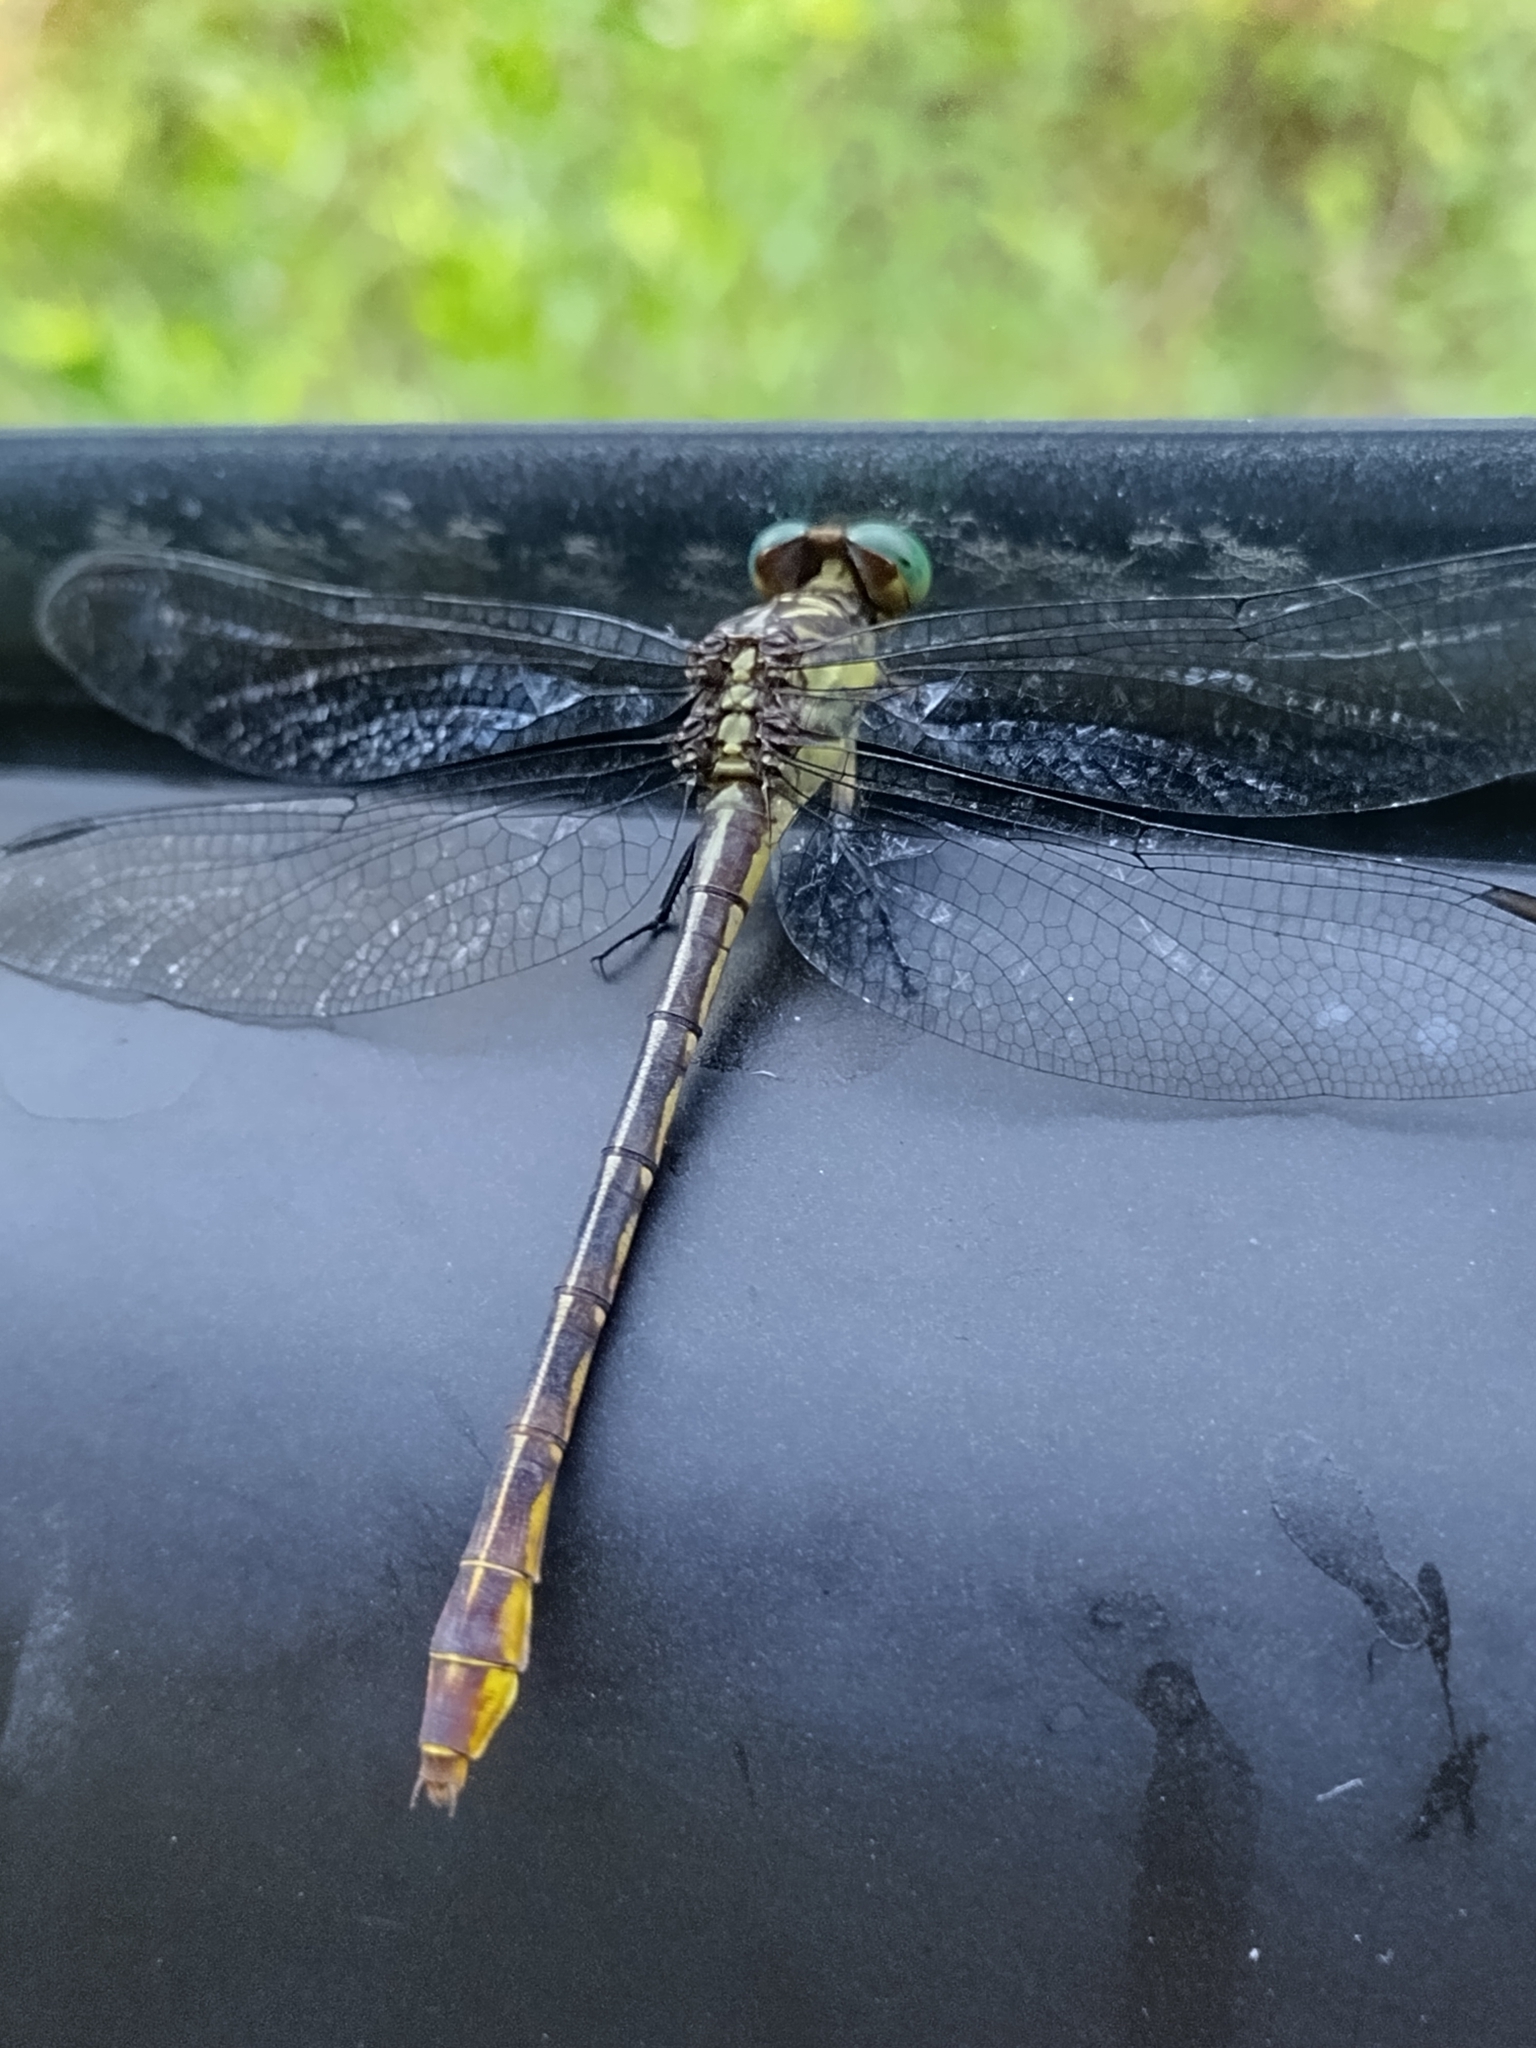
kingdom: Animalia
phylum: Arthropoda
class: Insecta
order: Odonata
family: Gomphidae
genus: Stylurus
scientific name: Stylurus laurae
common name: Laura's clubtail
